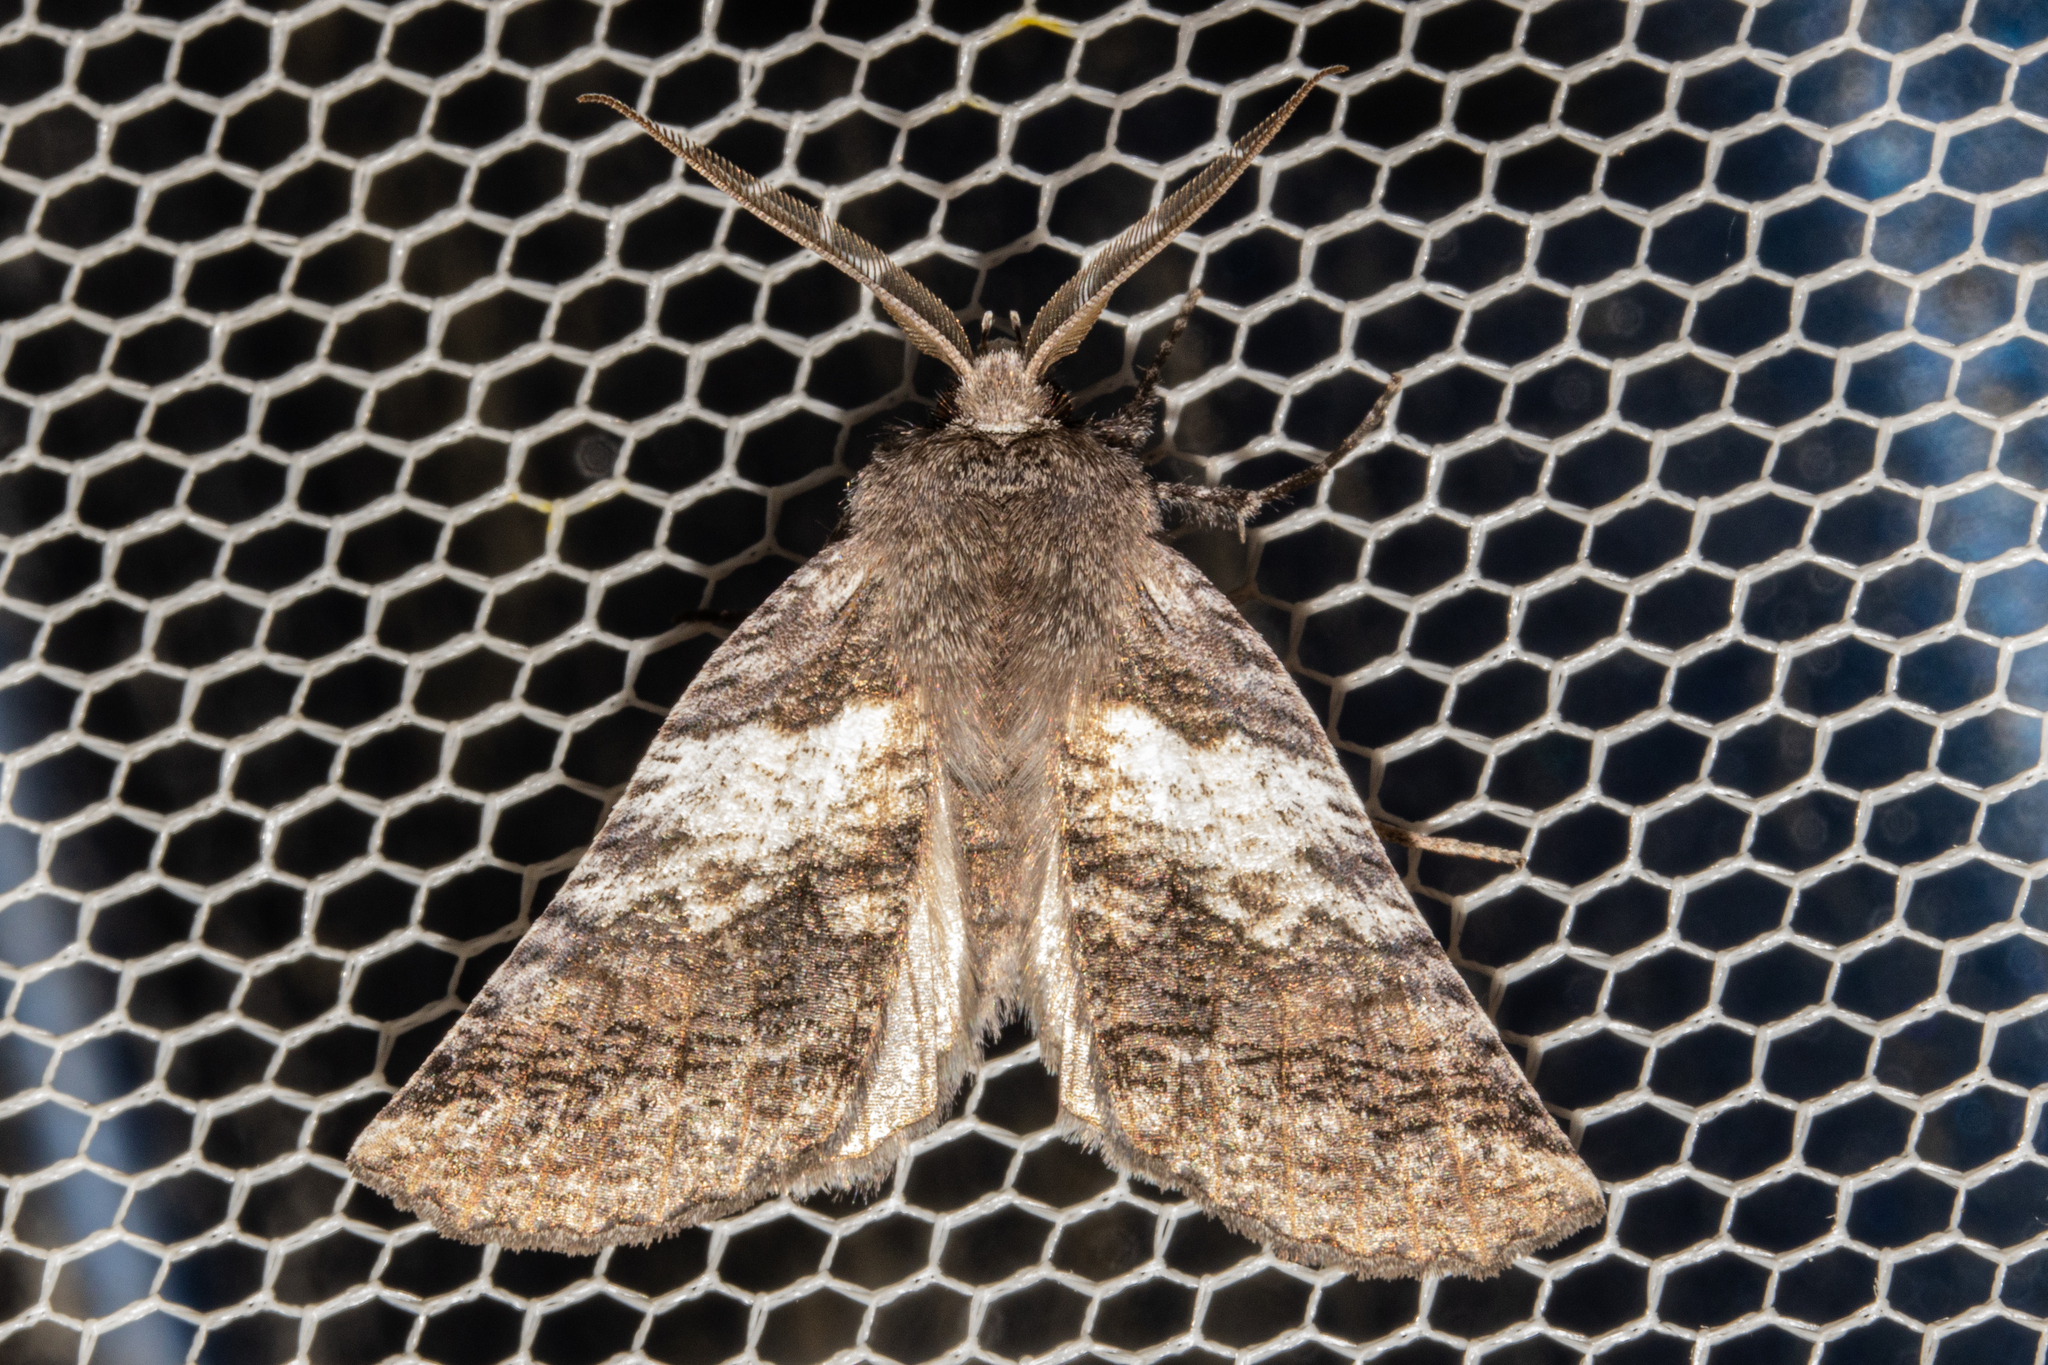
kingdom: Animalia
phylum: Arthropoda
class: Insecta
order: Lepidoptera
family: Geometridae
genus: Declana
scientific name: Declana
